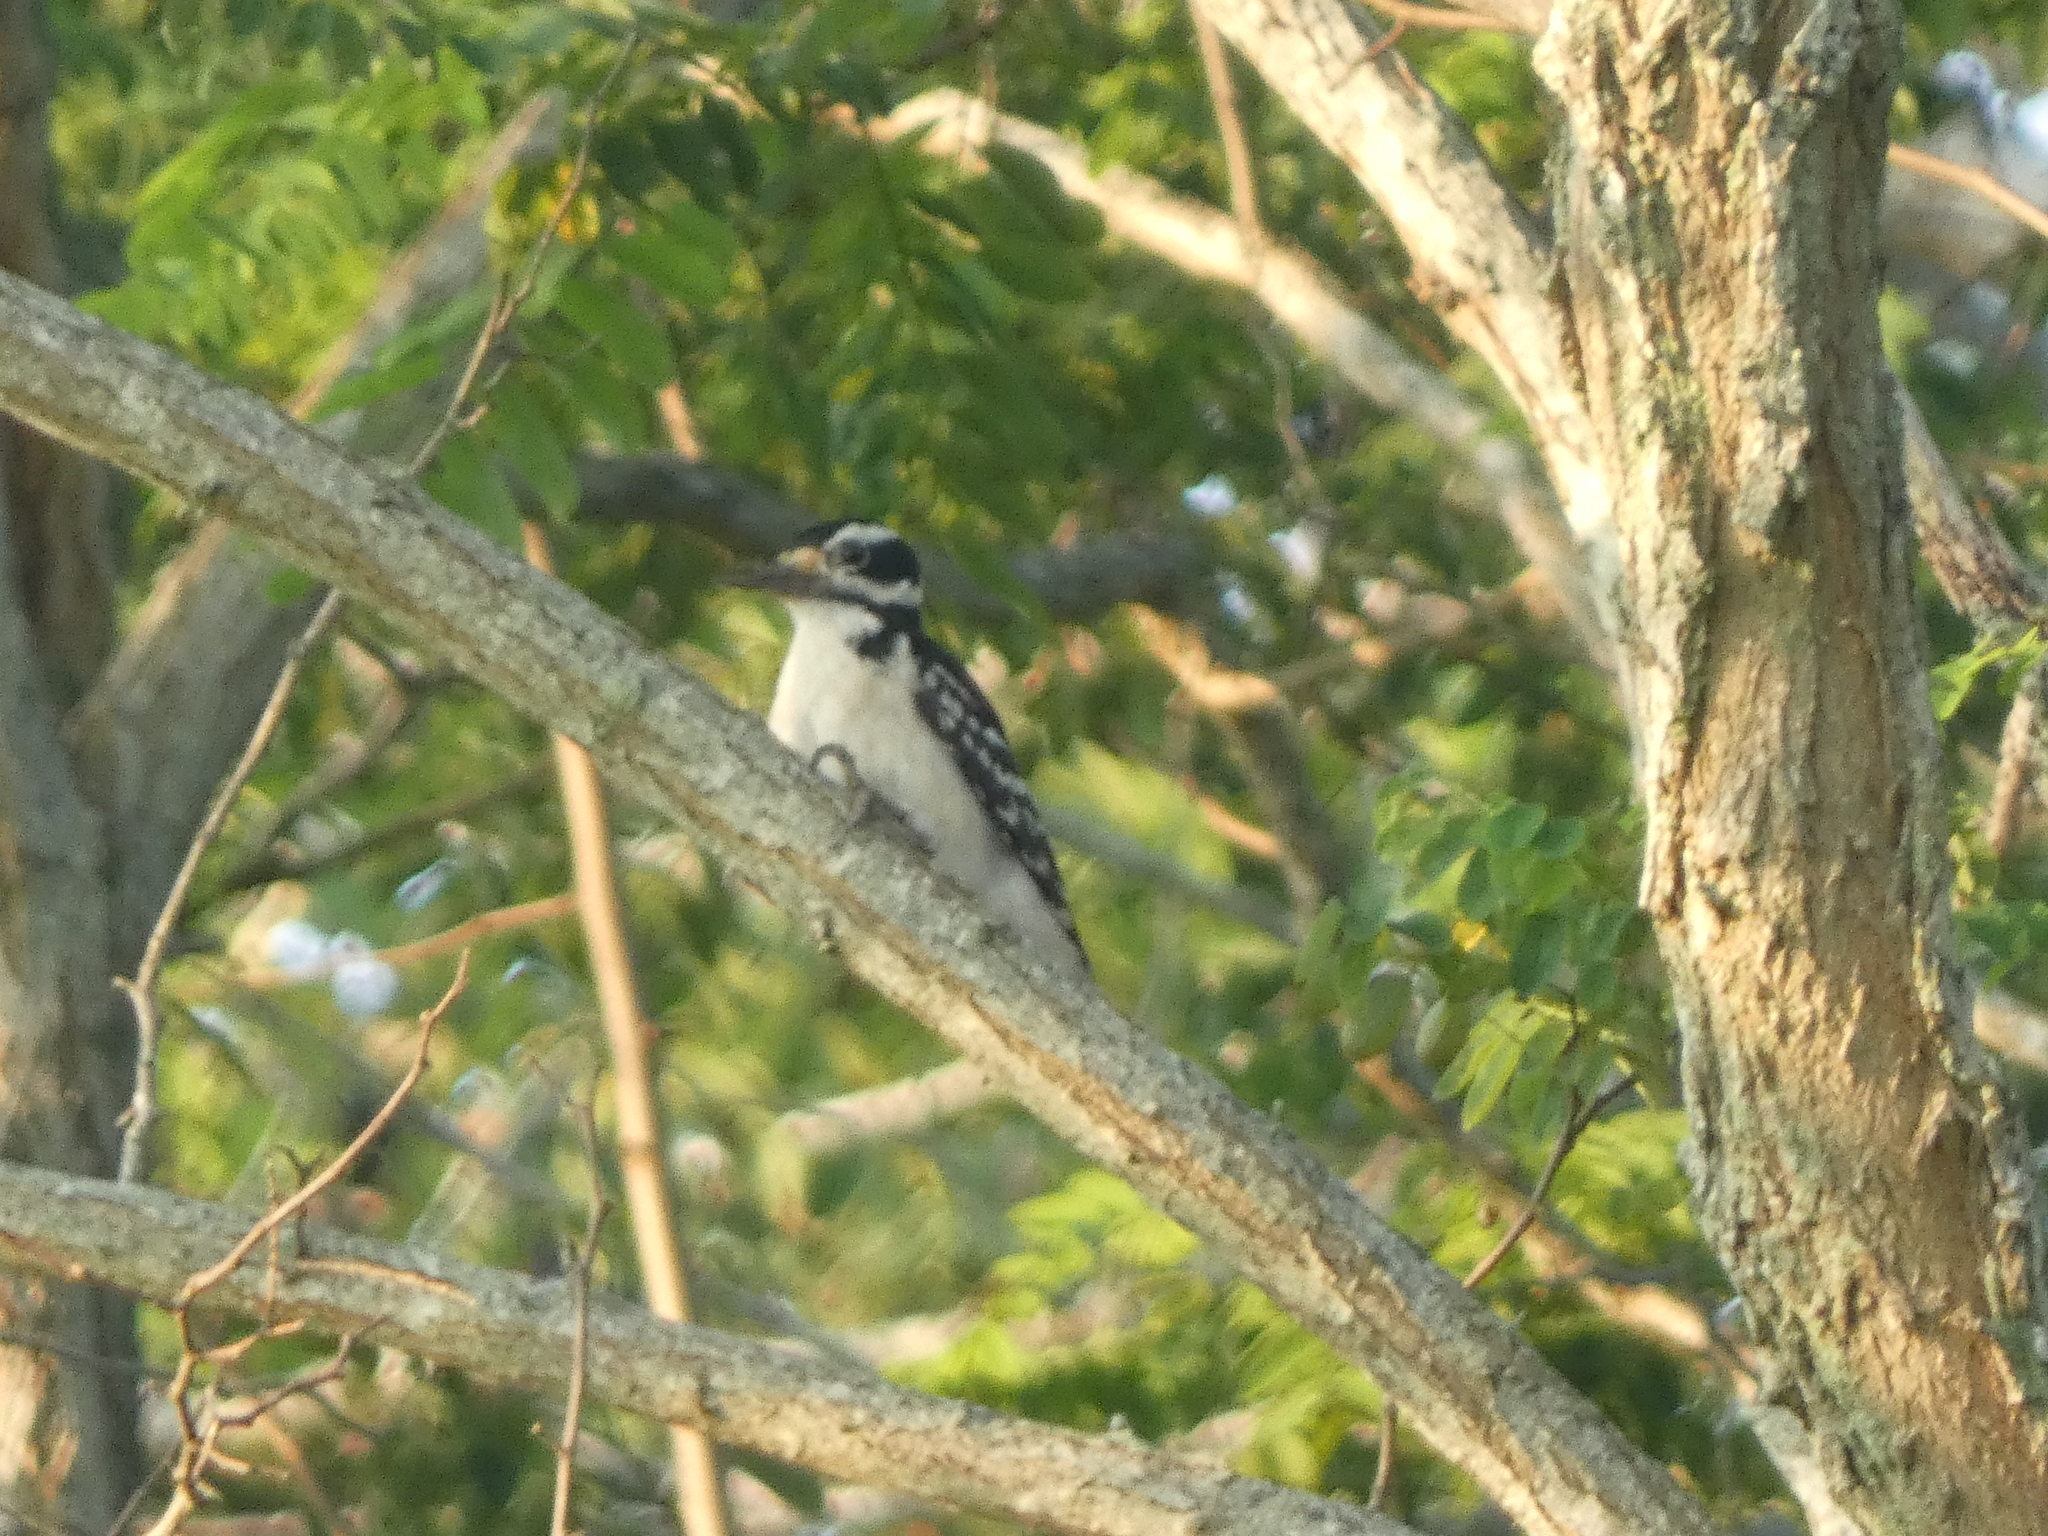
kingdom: Animalia
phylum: Chordata
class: Aves
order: Piciformes
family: Picidae
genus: Leuconotopicus
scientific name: Leuconotopicus villosus
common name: Hairy woodpecker
